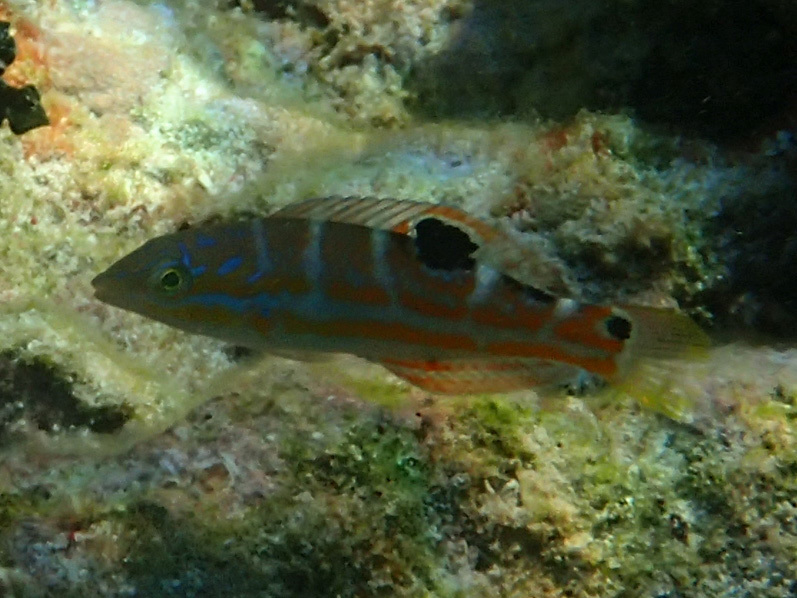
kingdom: Animalia
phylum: Chordata
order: Perciformes
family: Labridae
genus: Halichoeres
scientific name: Halichoeres radiatus
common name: Puddingwife
